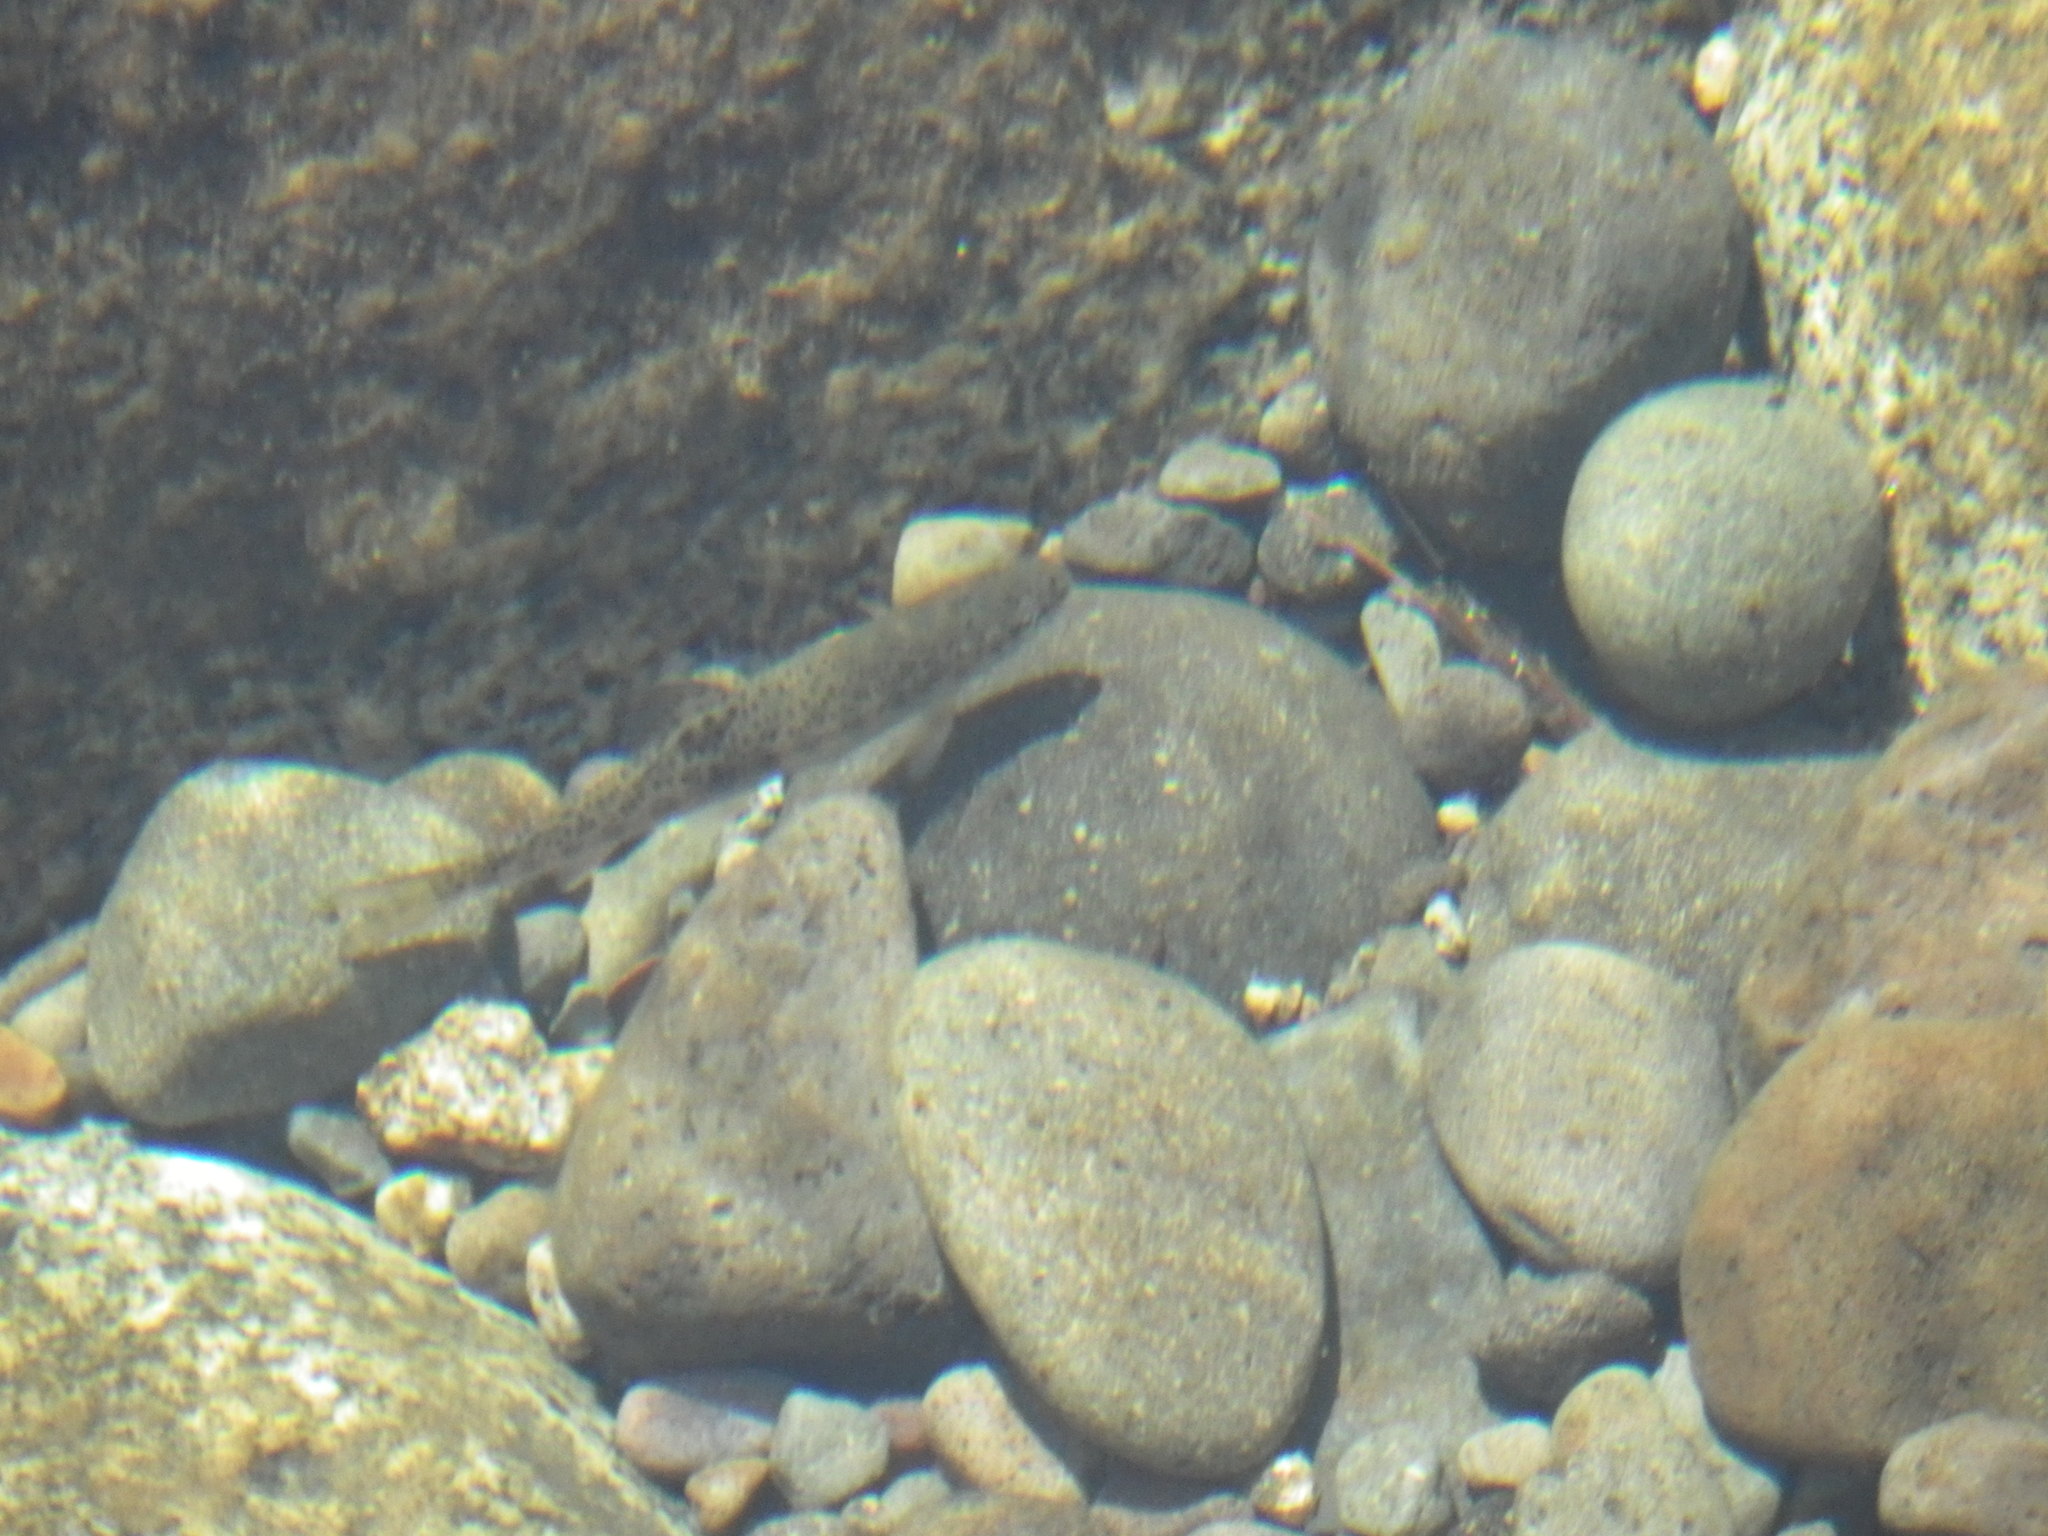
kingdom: Animalia
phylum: Chordata
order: Salmoniformes
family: Salmonidae
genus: Oncorhynchus
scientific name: Oncorhynchus mykiss
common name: Rainbow trout
